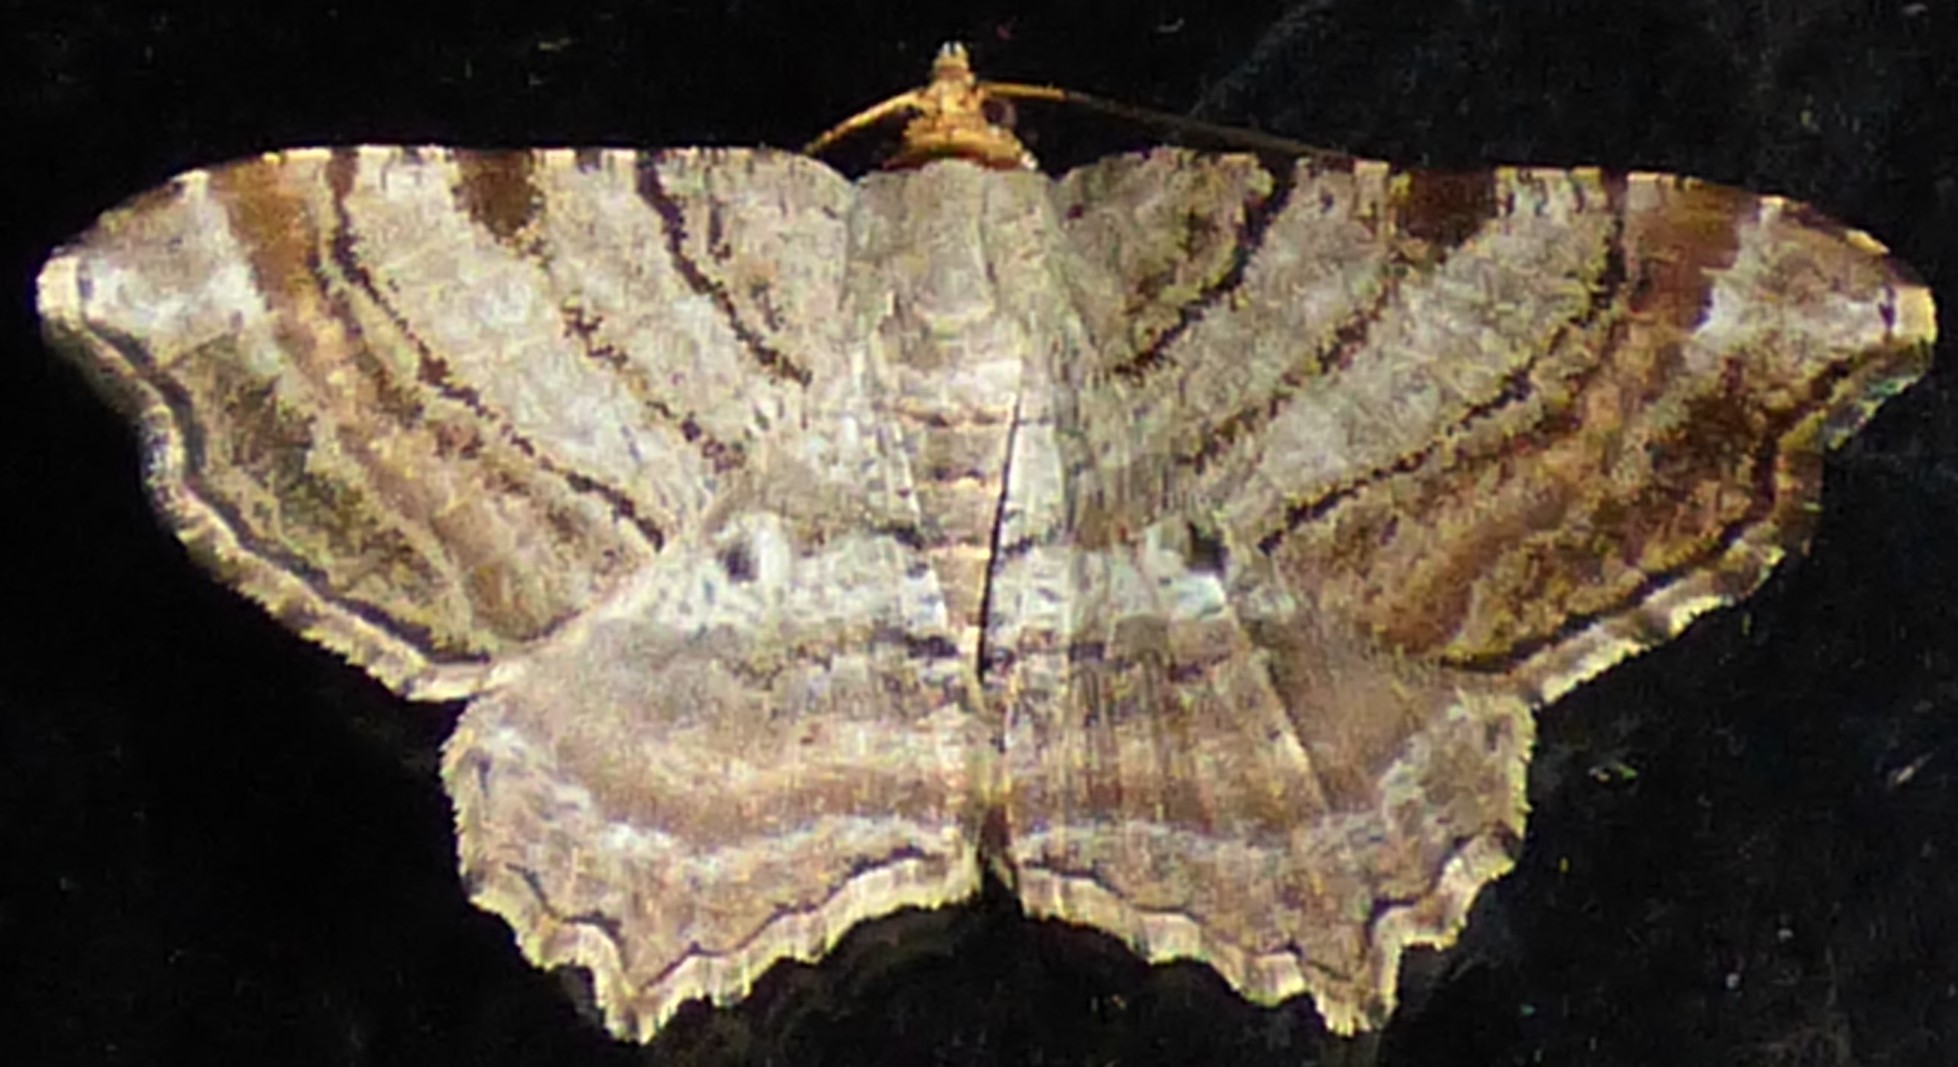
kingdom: Animalia
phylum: Arthropoda
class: Insecta
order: Lepidoptera
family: Geometridae
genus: Macaria
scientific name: Macaria multilineata
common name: Many-lined angle
